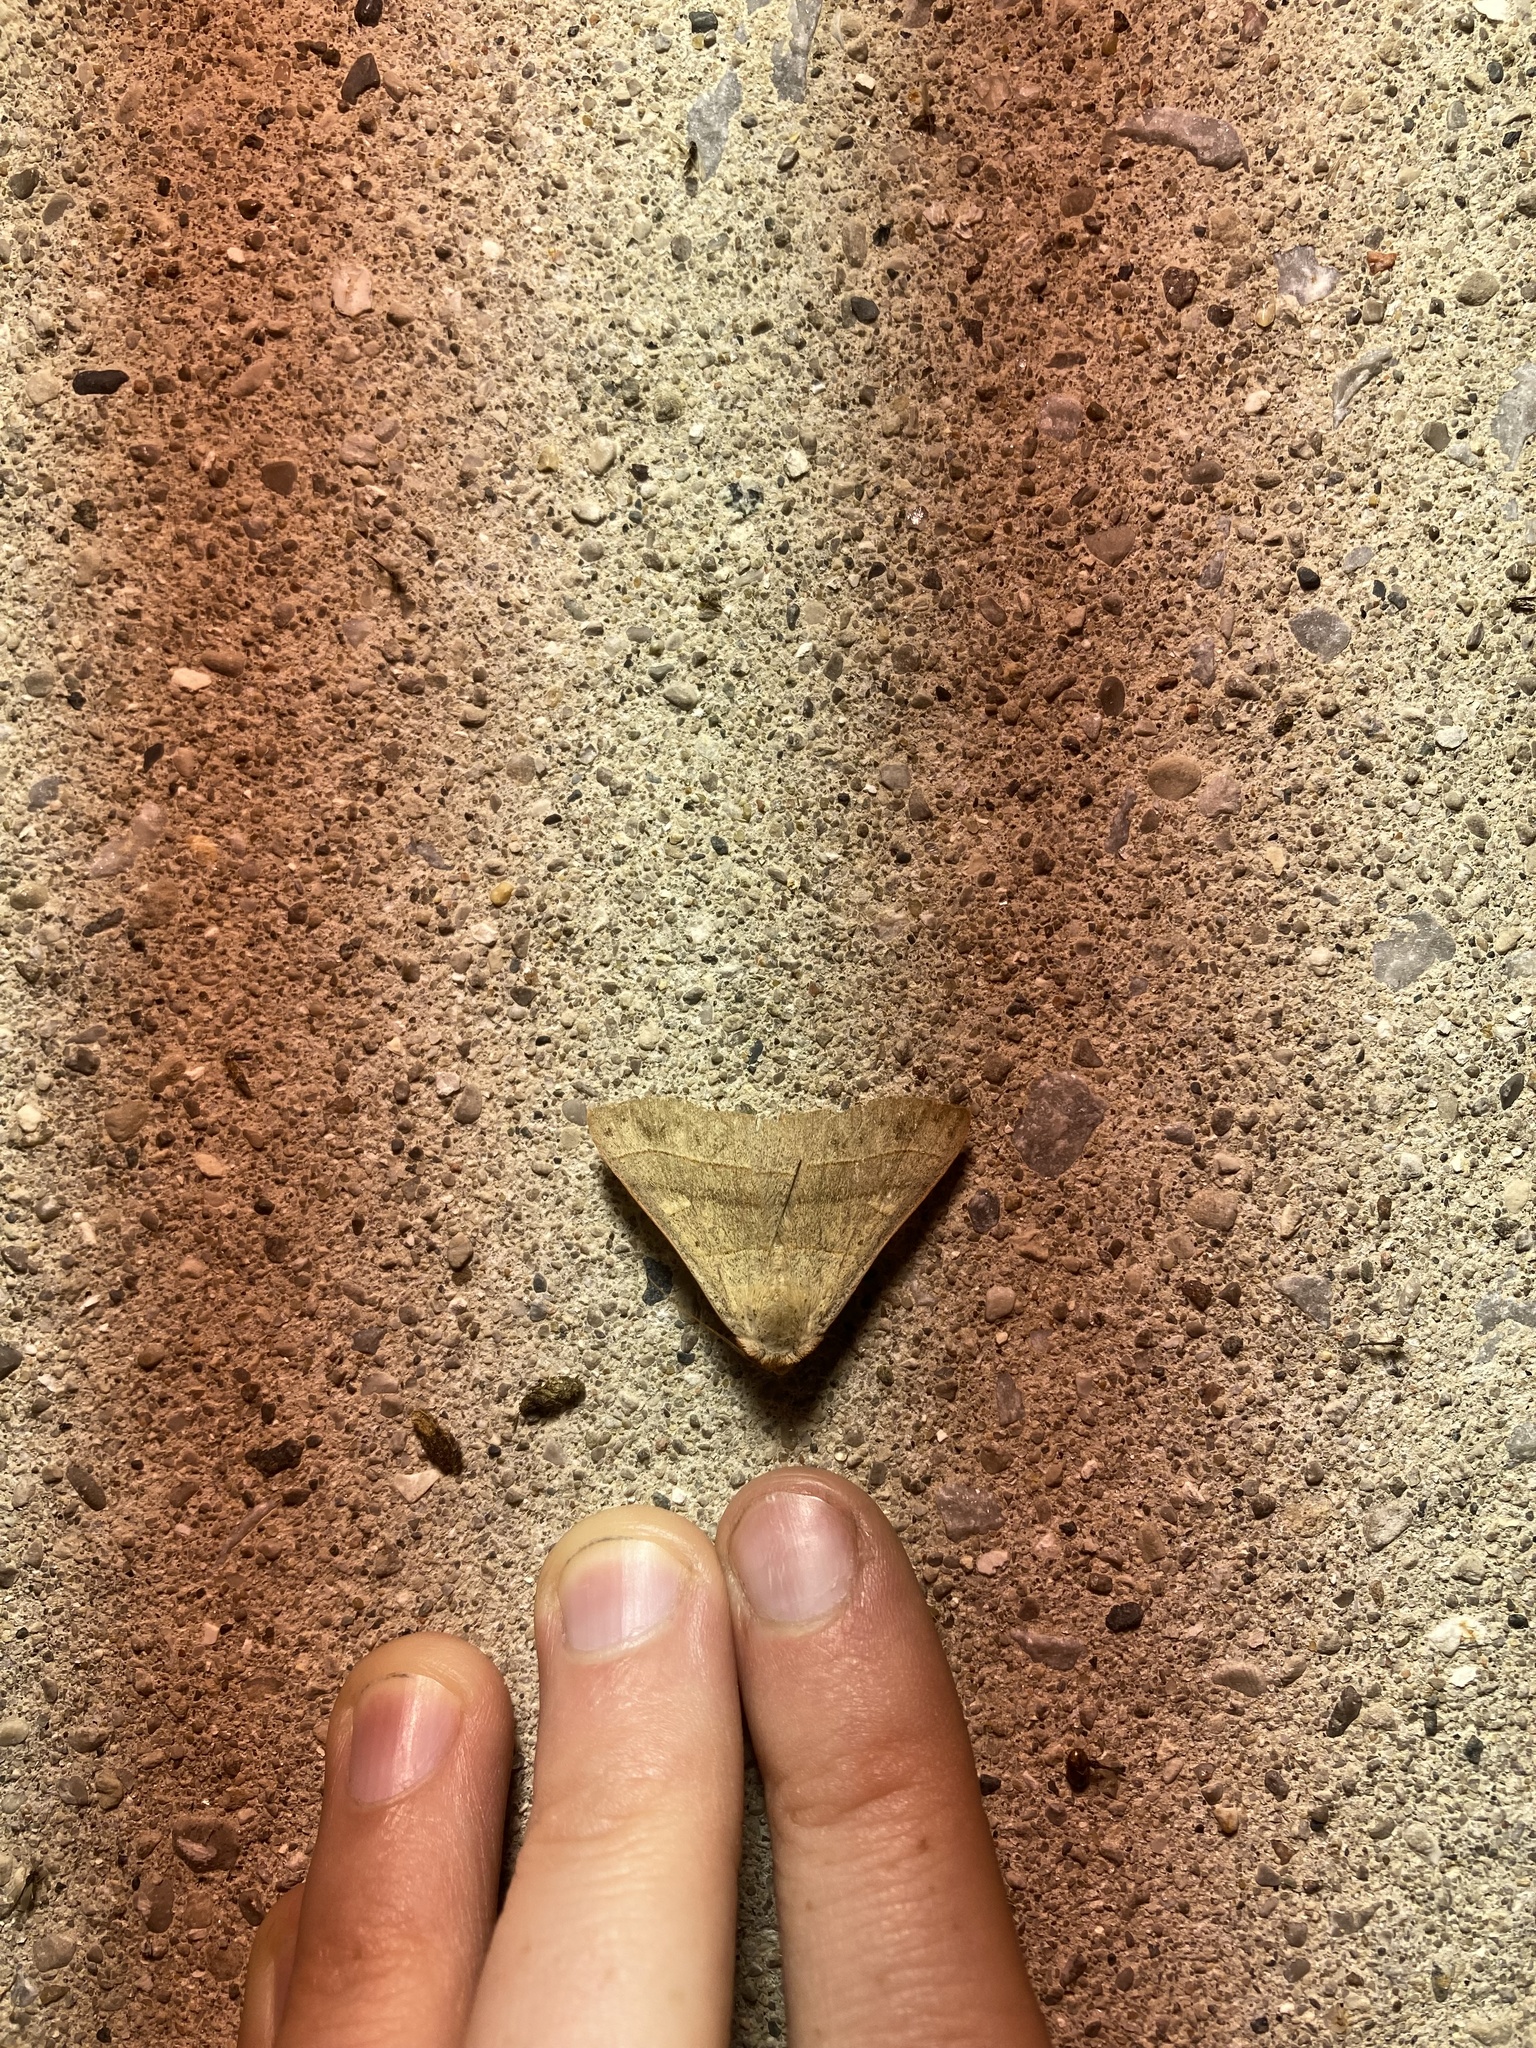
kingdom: Animalia
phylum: Arthropoda
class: Insecta
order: Lepidoptera
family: Erebidae
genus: Panopoda
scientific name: Panopoda rufimargo
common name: Red-lined panopoda moth
